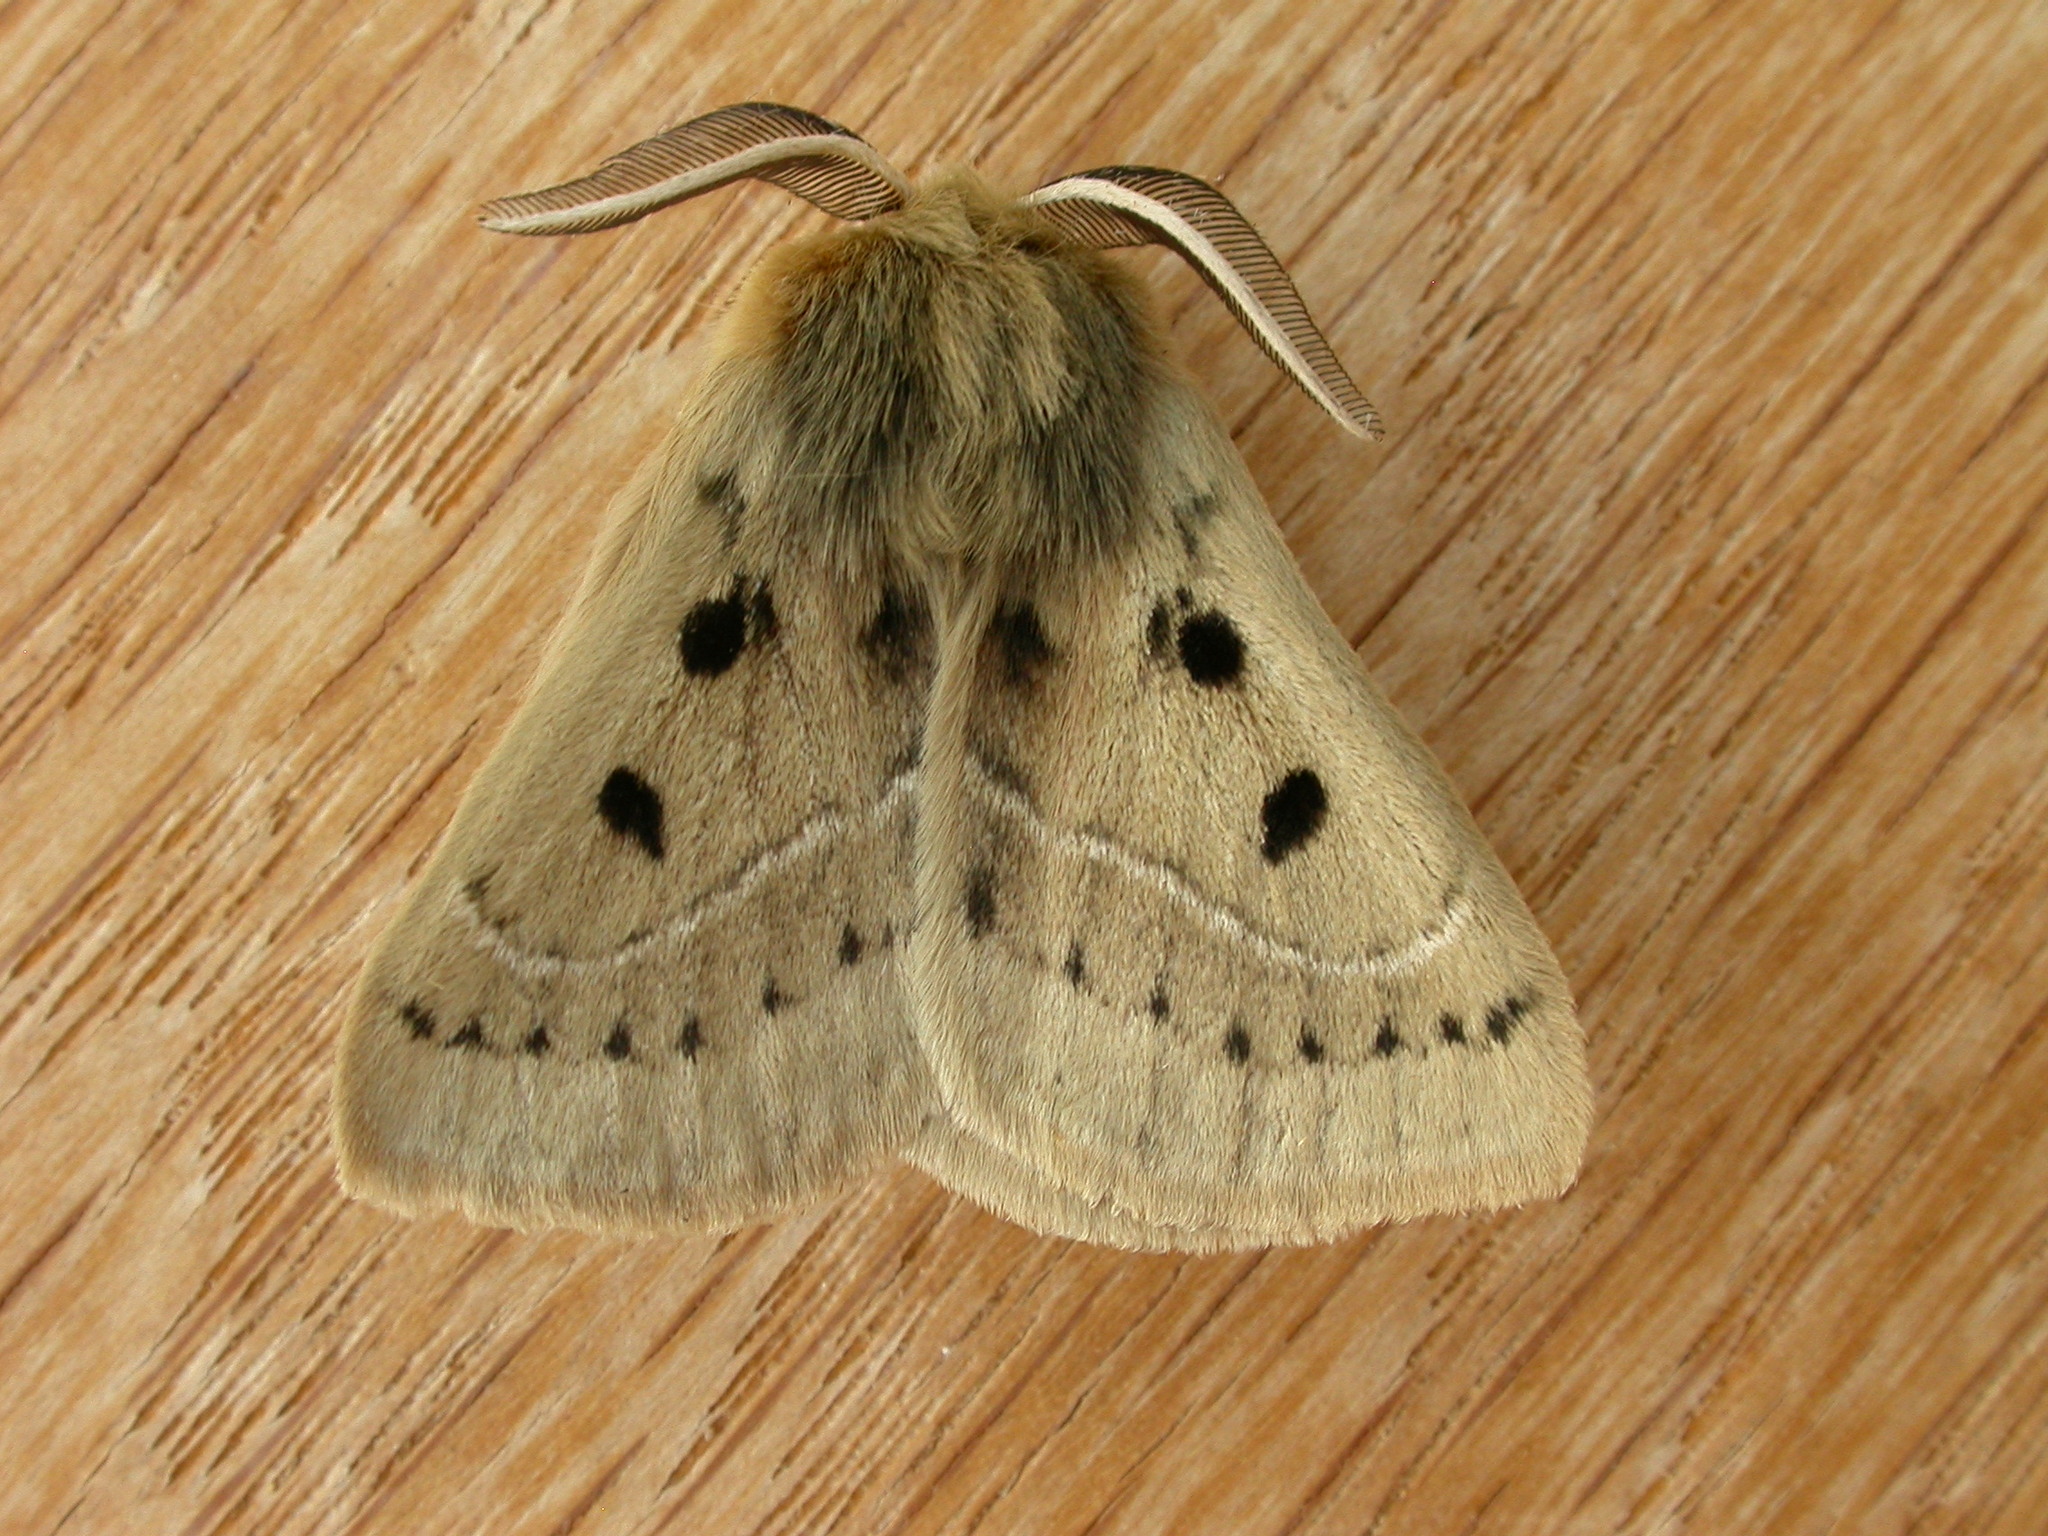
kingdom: Animalia
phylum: Arthropoda
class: Insecta
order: Lepidoptera
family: Anthelidae
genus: Anthela
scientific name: Anthela ocellata
